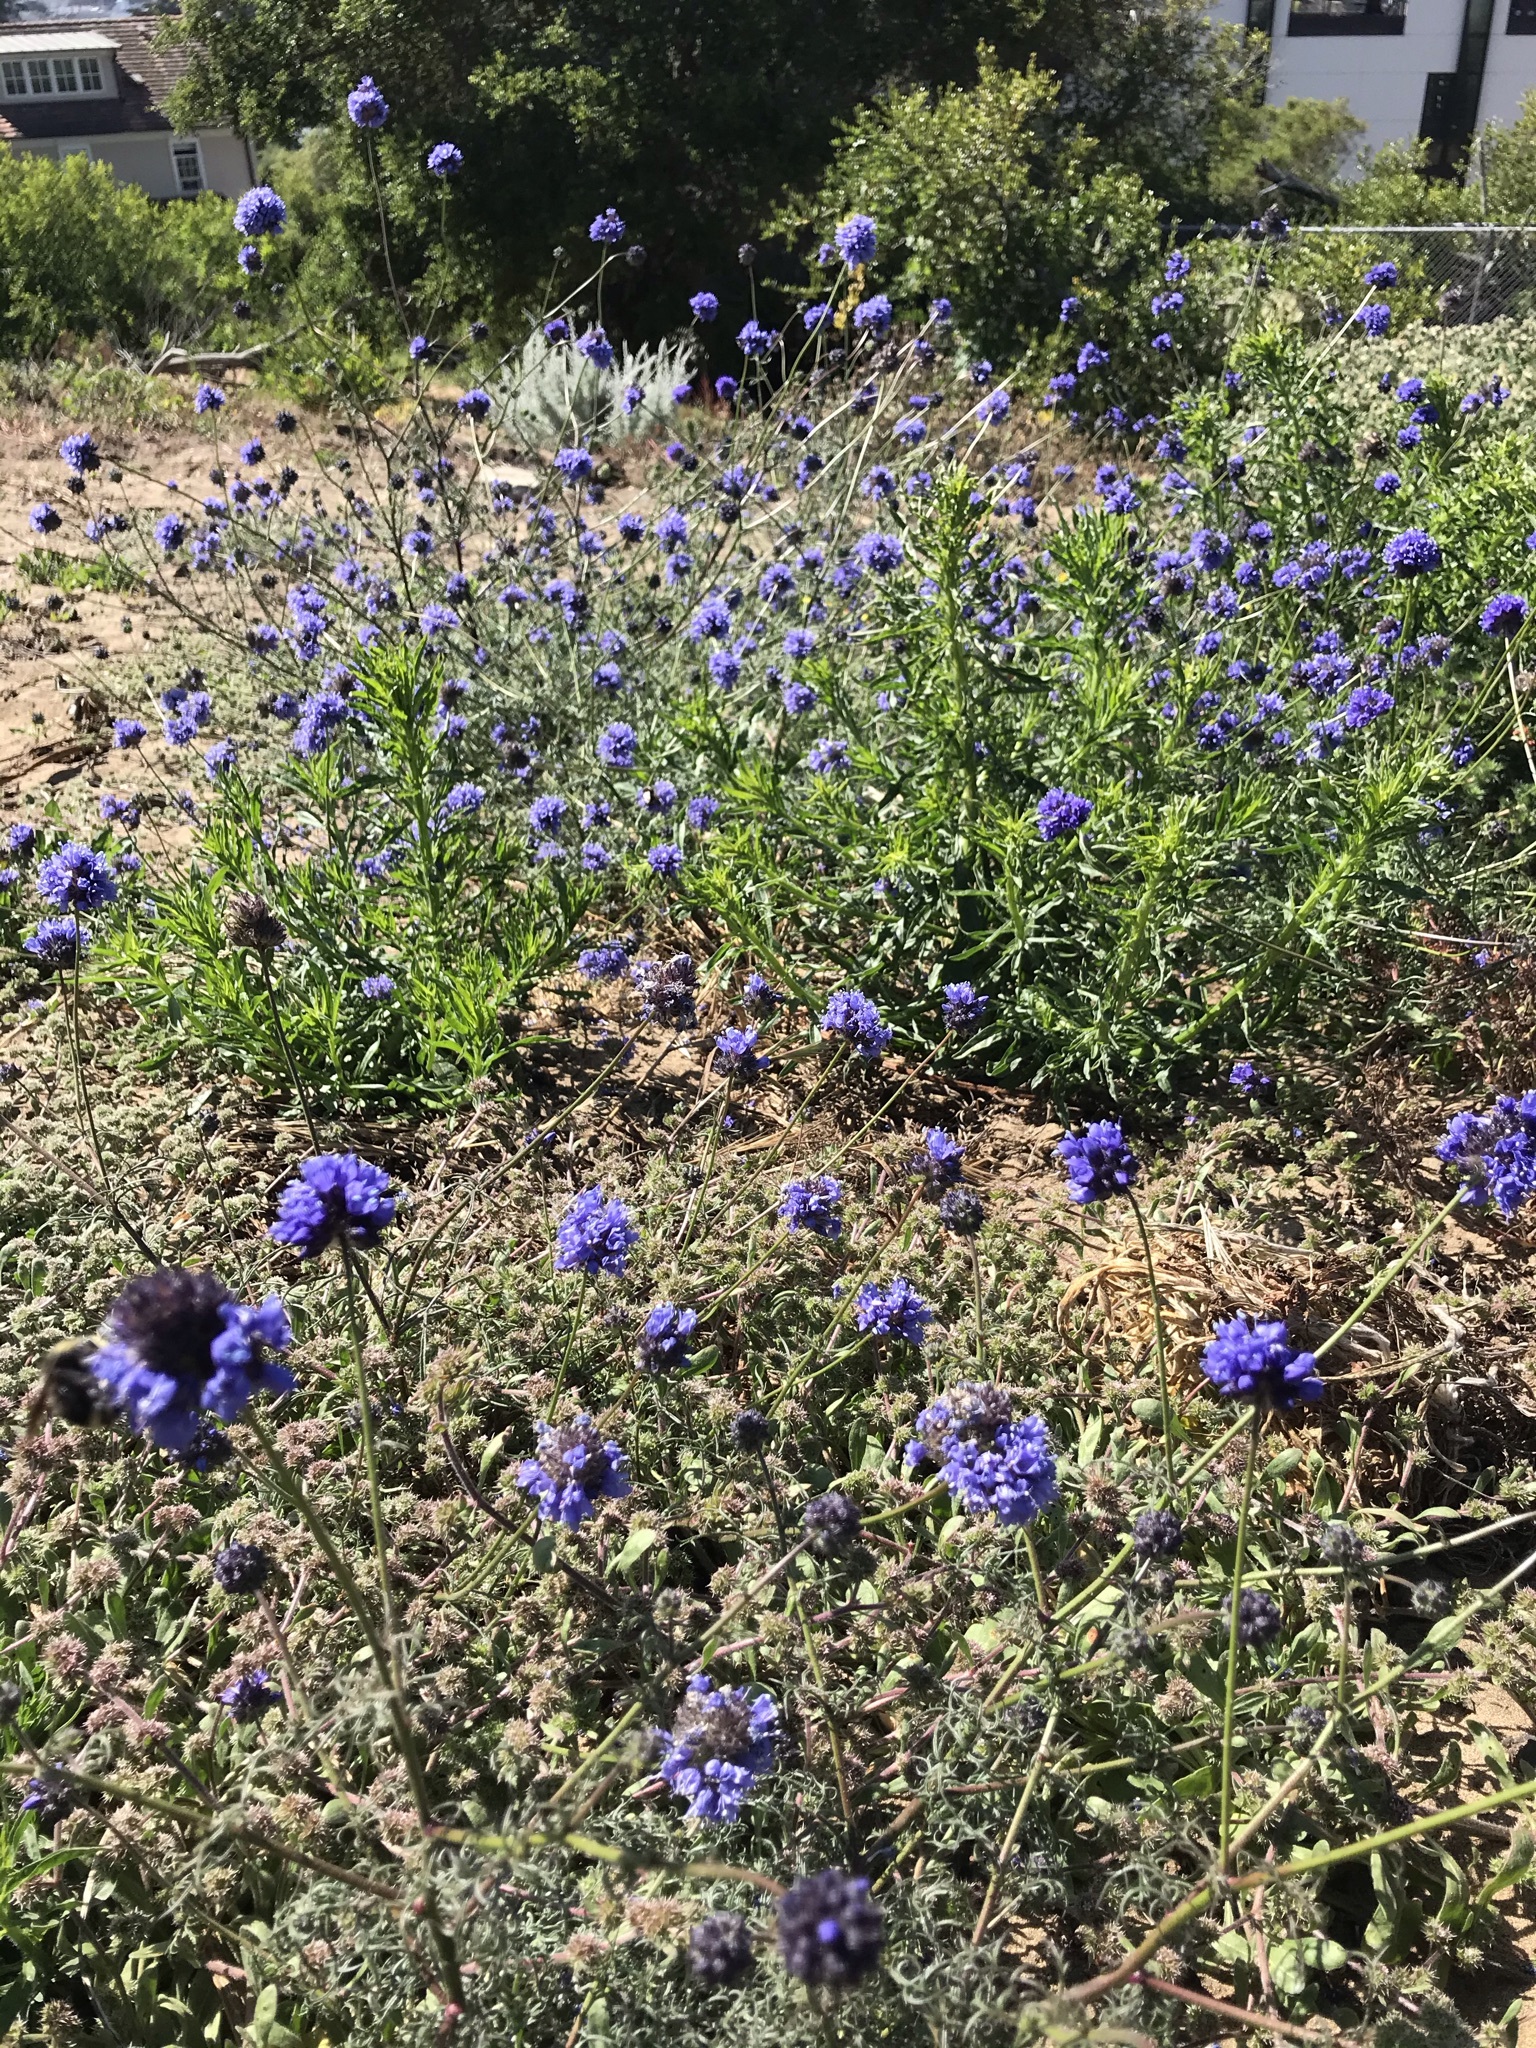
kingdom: Plantae
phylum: Tracheophyta
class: Magnoliopsida
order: Ericales
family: Polemoniaceae
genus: Gilia
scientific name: Gilia capitata
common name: Bluehead gilia
